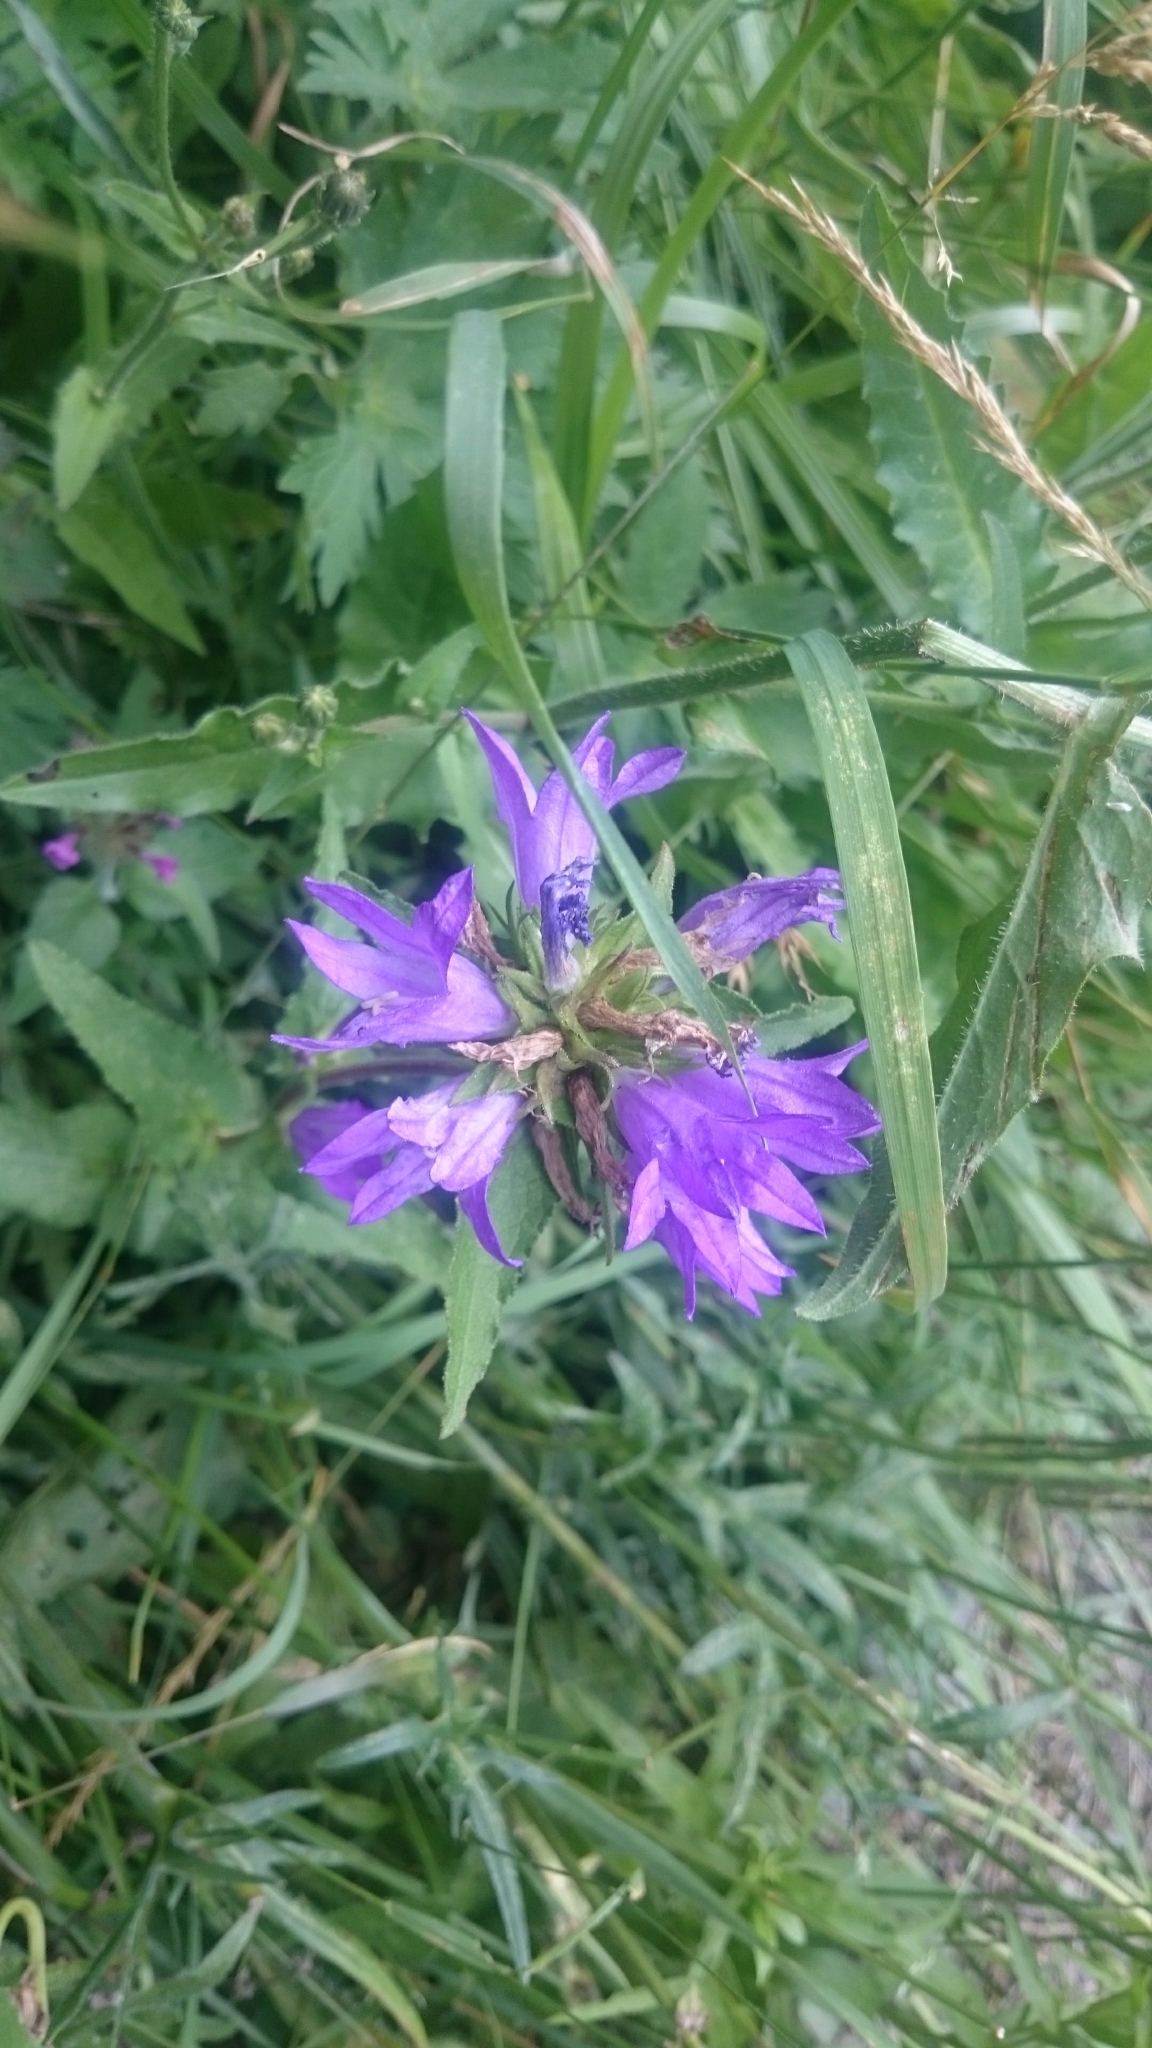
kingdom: Plantae
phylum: Tracheophyta
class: Magnoliopsida
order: Asterales
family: Campanulaceae
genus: Campanula
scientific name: Campanula glomerata
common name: Clustered bellflower
